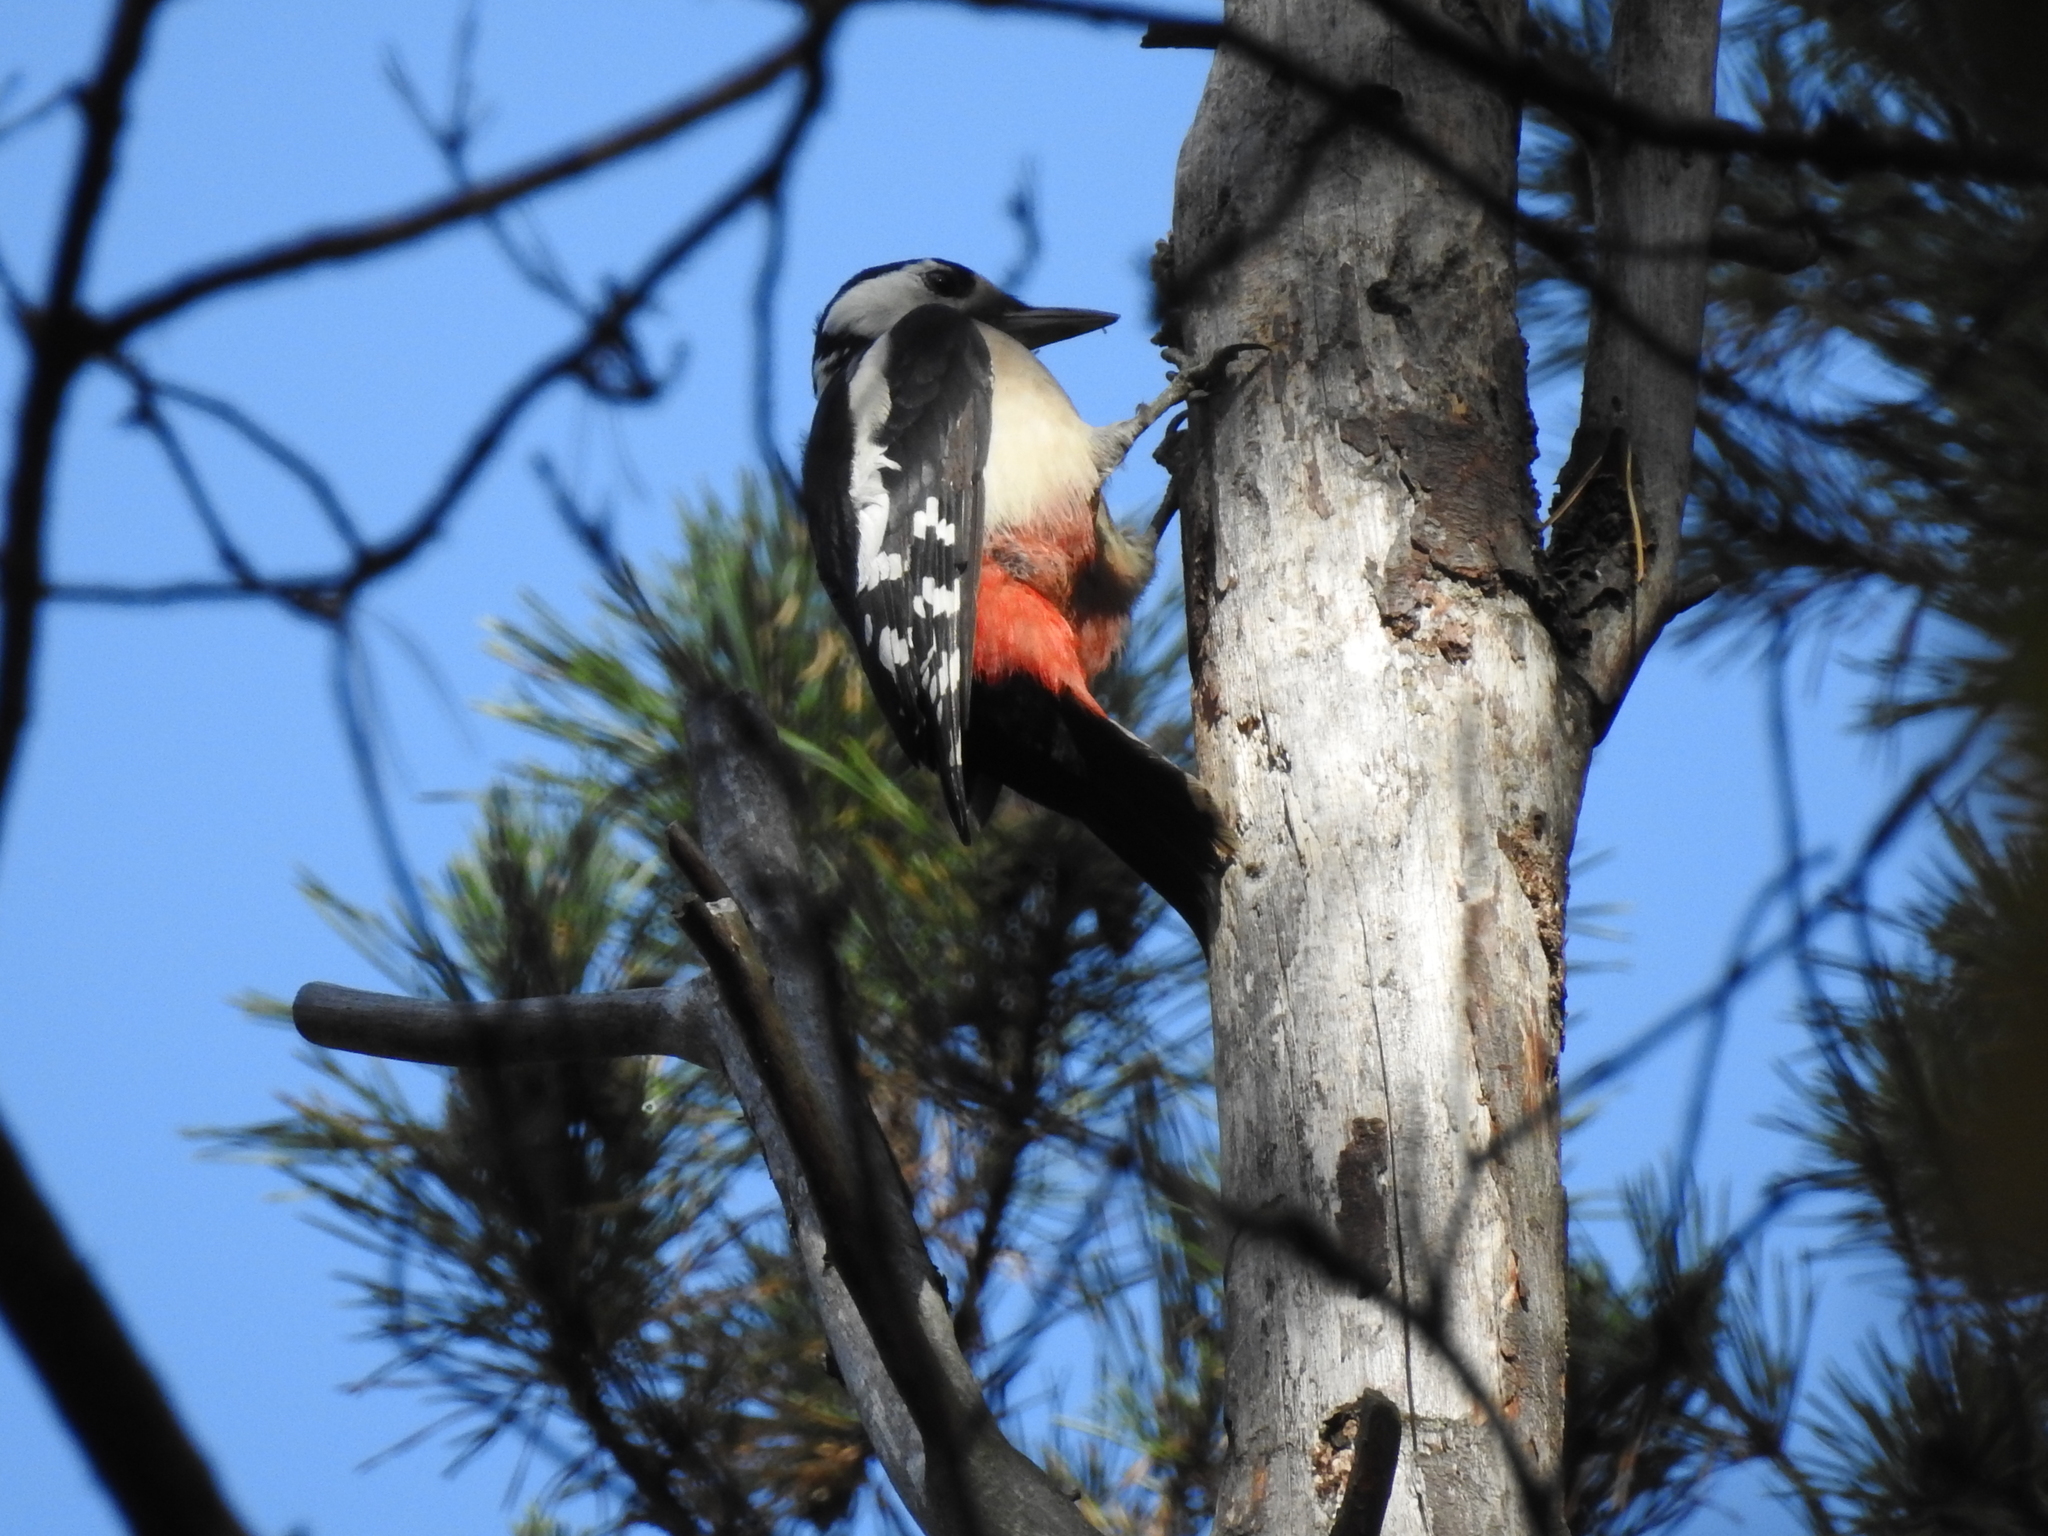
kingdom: Animalia
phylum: Chordata
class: Aves
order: Piciformes
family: Picidae
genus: Dendrocopos
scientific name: Dendrocopos major
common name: Great spotted woodpecker
